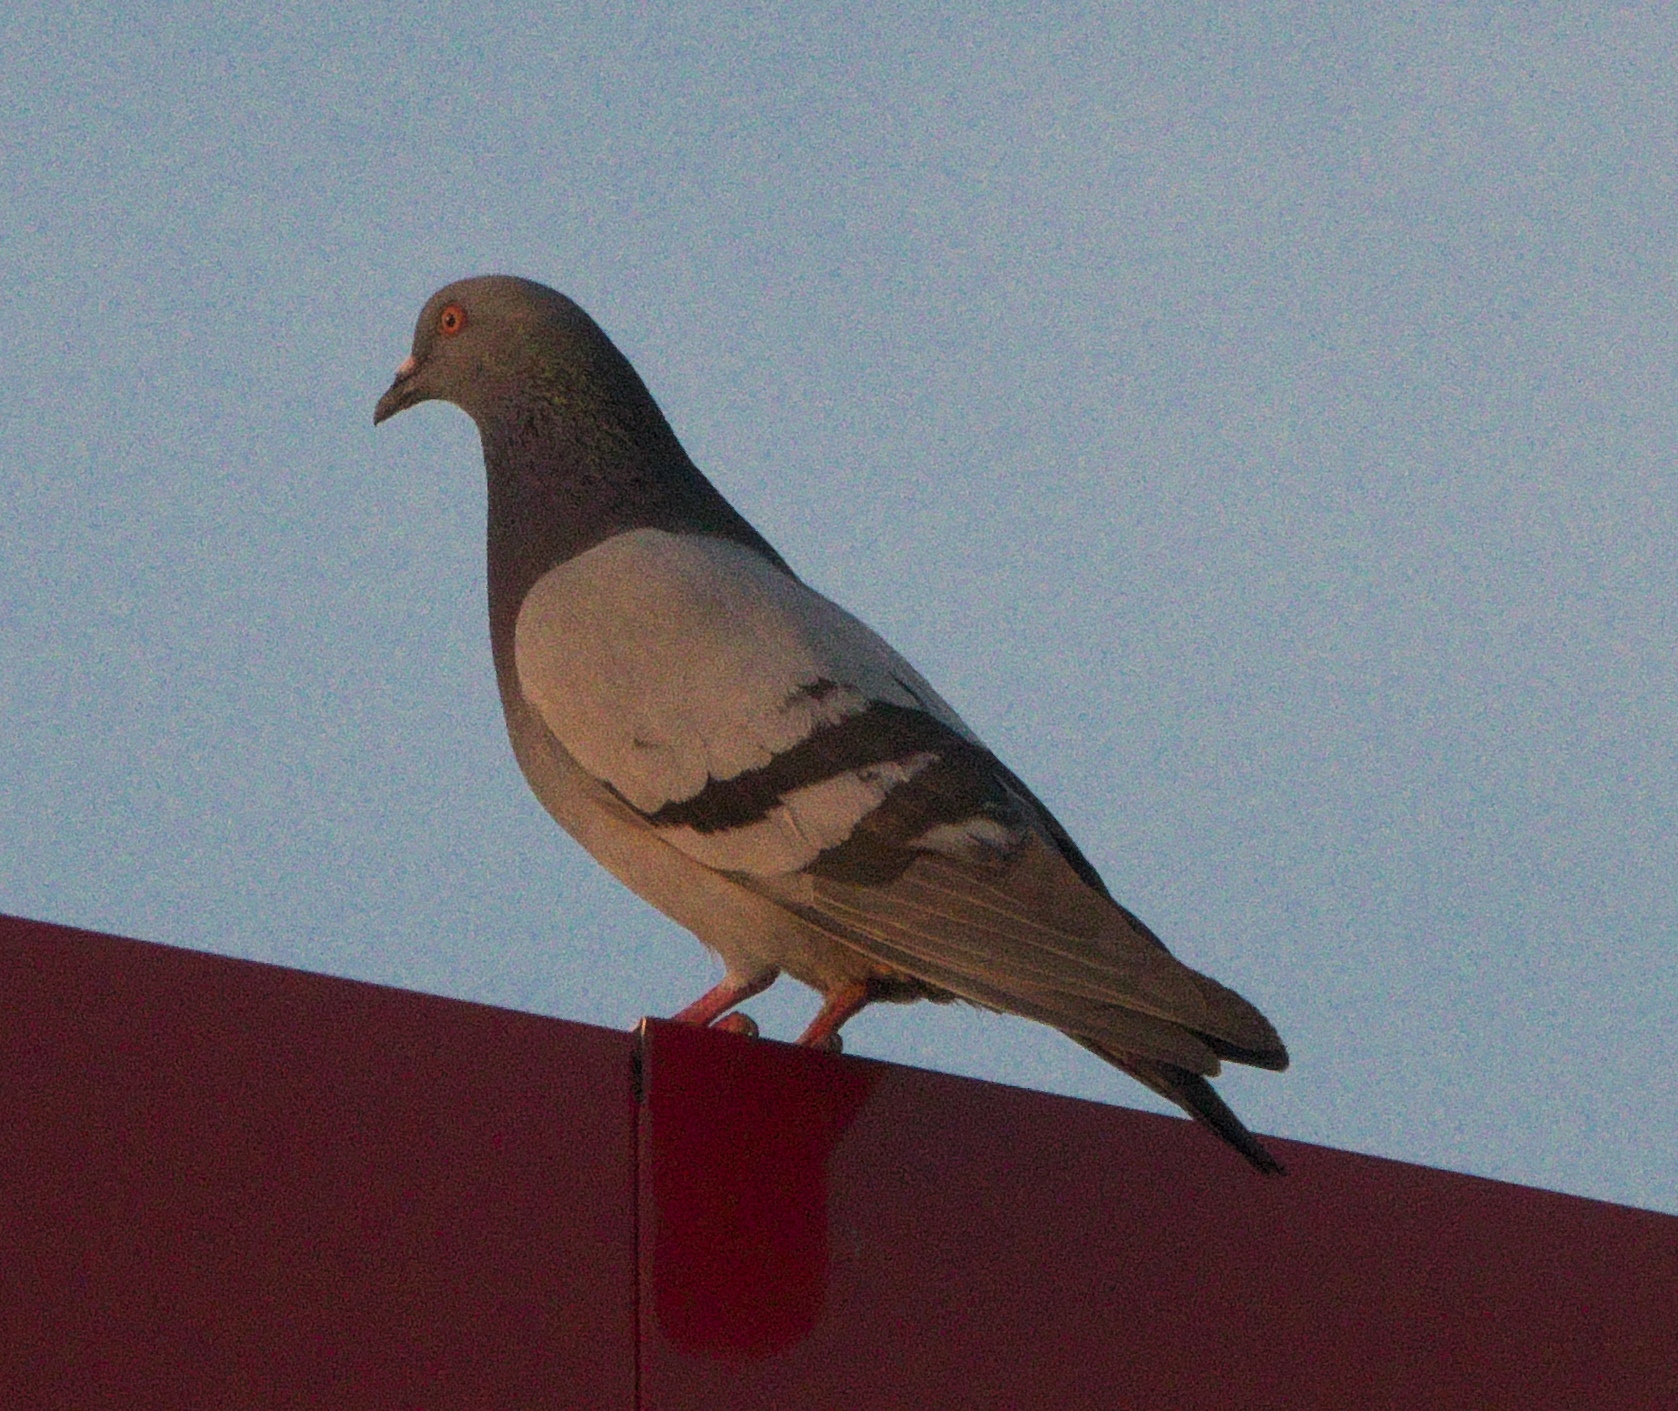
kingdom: Animalia
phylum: Chordata
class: Aves
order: Columbiformes
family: Columbidae
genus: Columba
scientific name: Columba livia
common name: Rock pigeon
